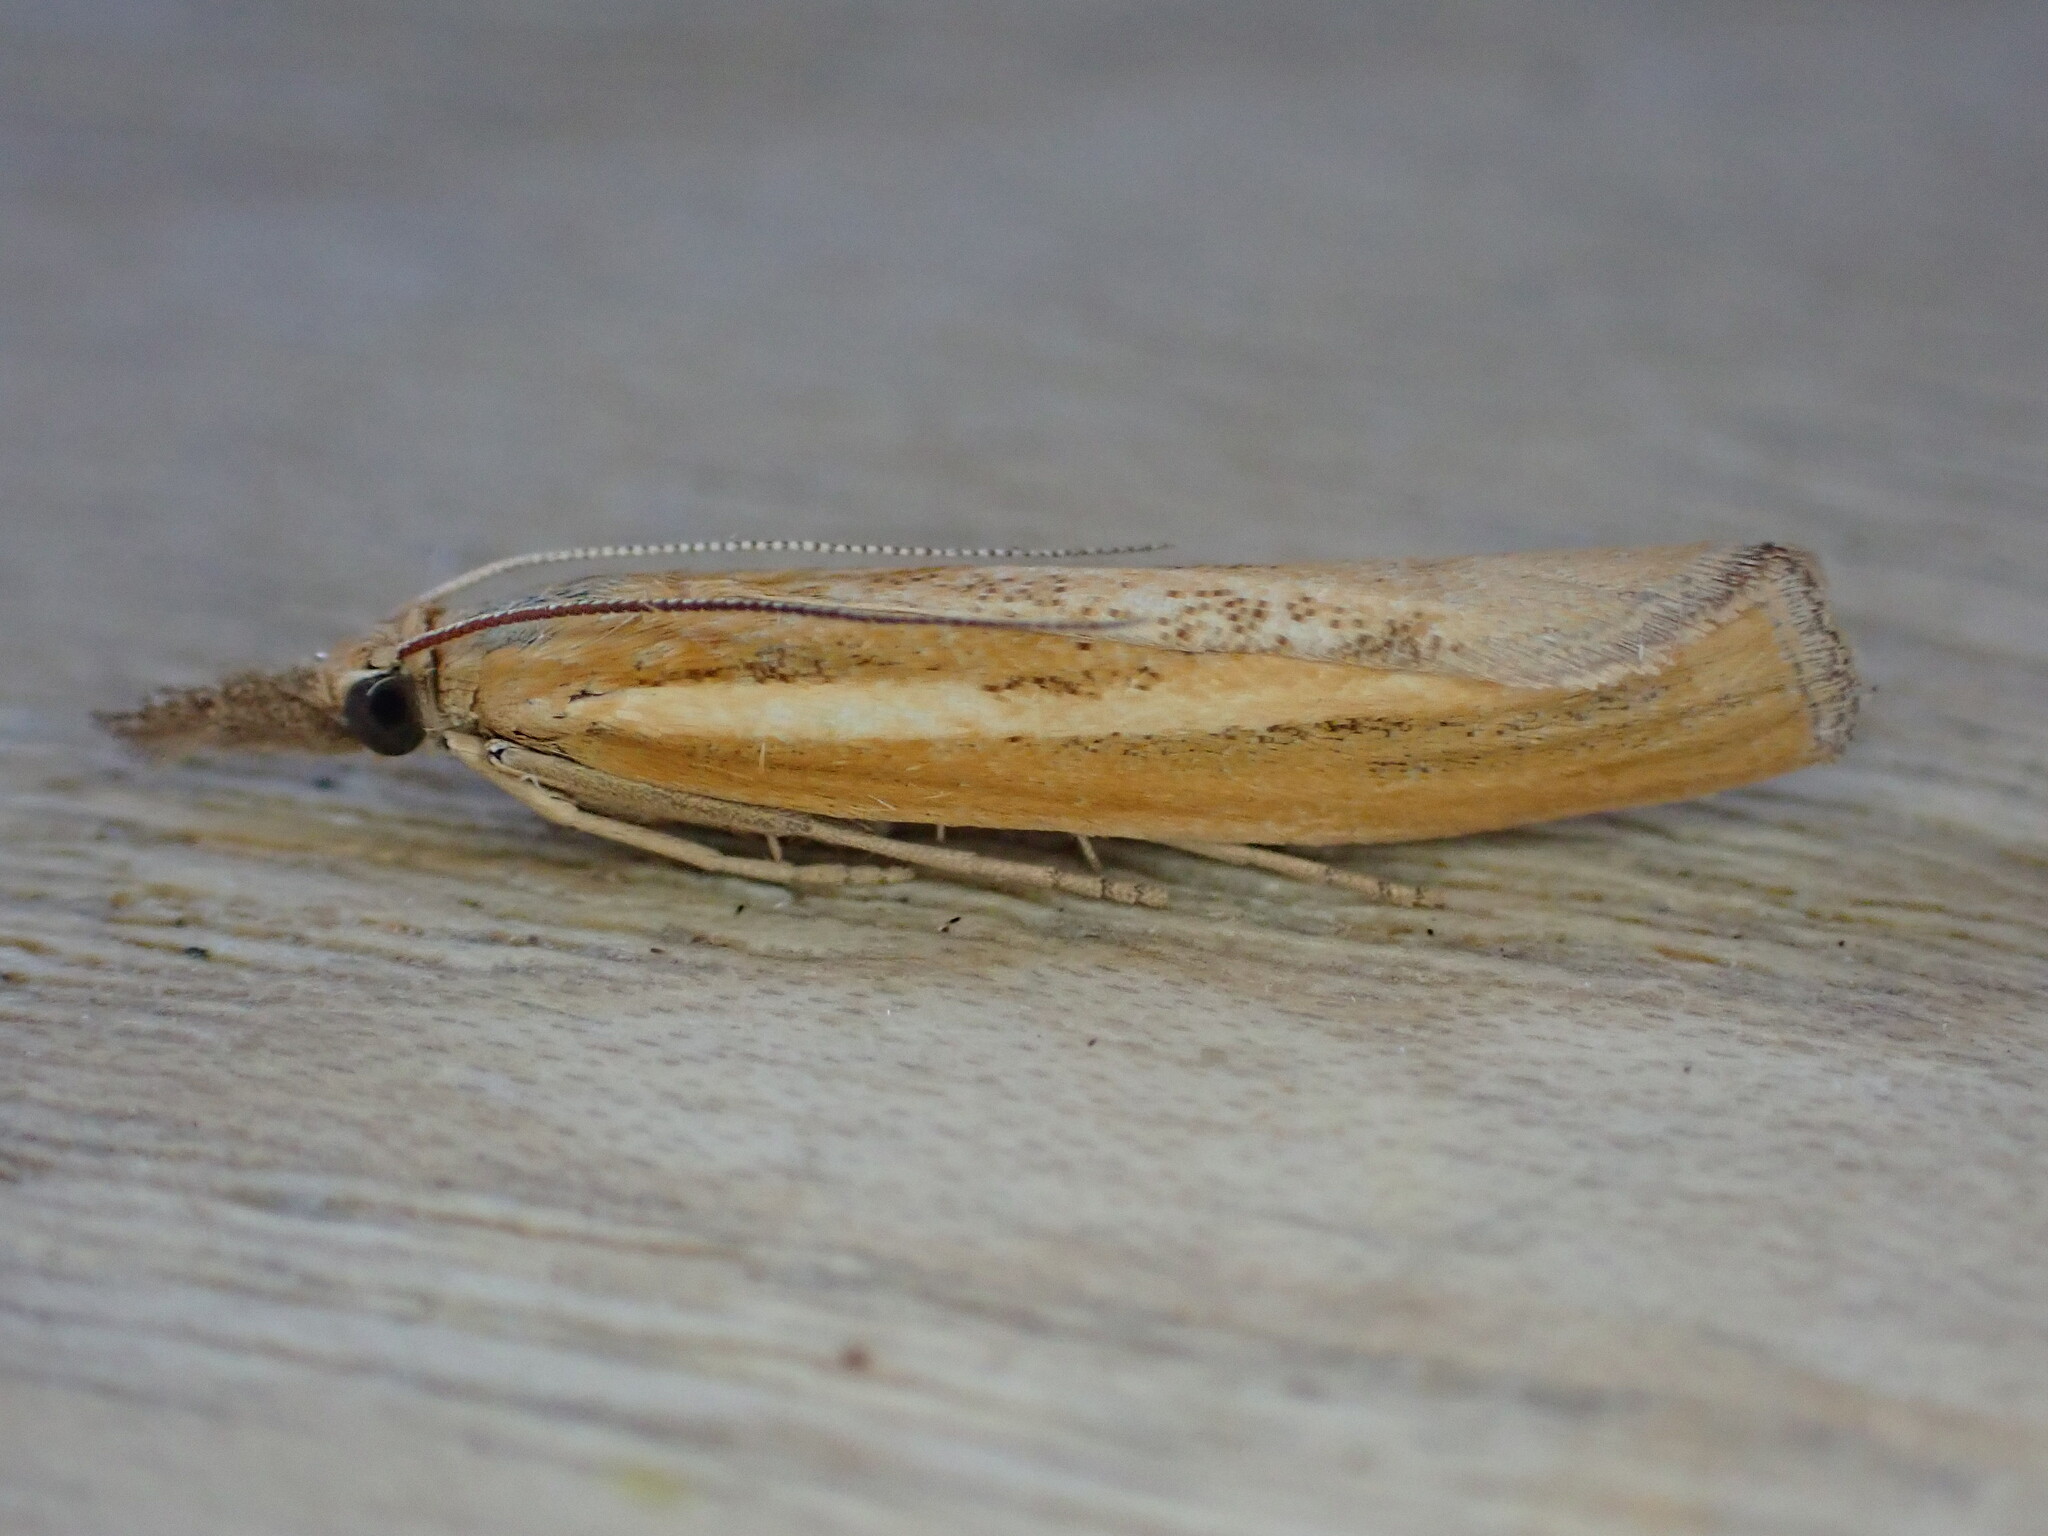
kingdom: Animalia
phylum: Arthropoda
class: Insecta
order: Lepidoptera
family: Crambidae
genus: Agriphila
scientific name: Agriphila tristellus
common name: Common grass-veneer
